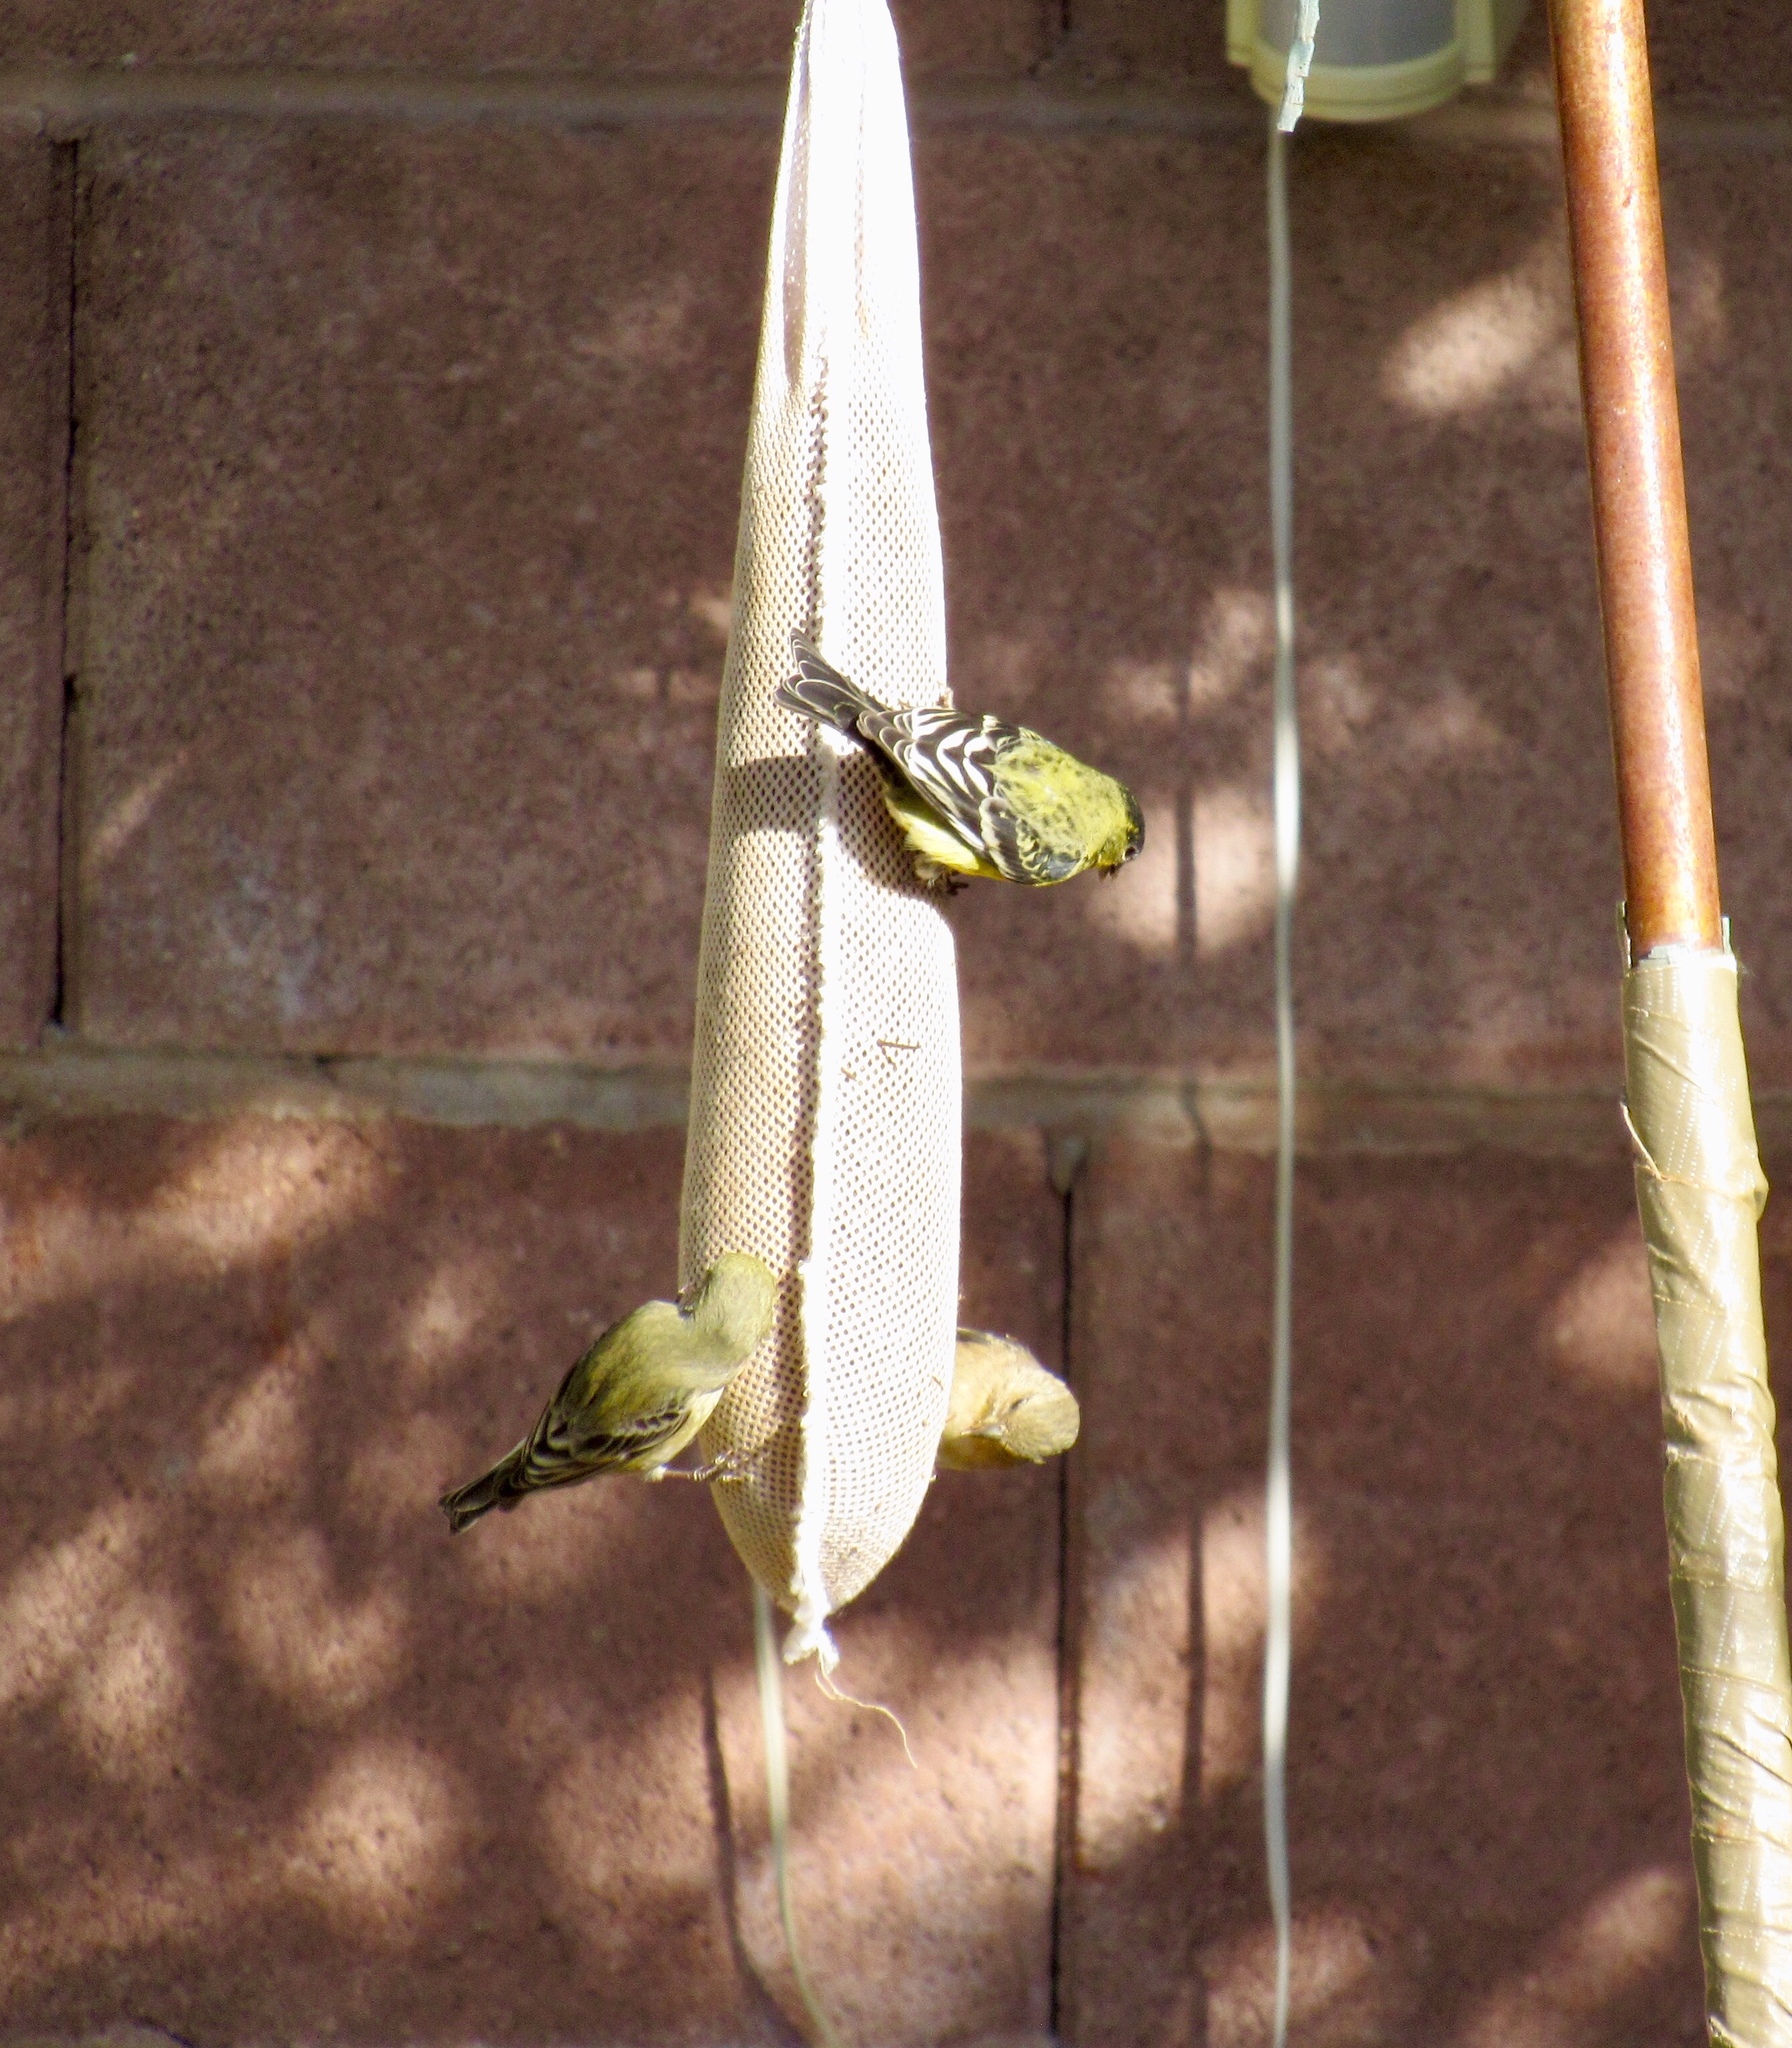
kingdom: Animalia
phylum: Chordata
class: Aves
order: Passeriformes
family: Fringillidae
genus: Spinus
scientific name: Spinus psaltria
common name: Lesser goldfinch
